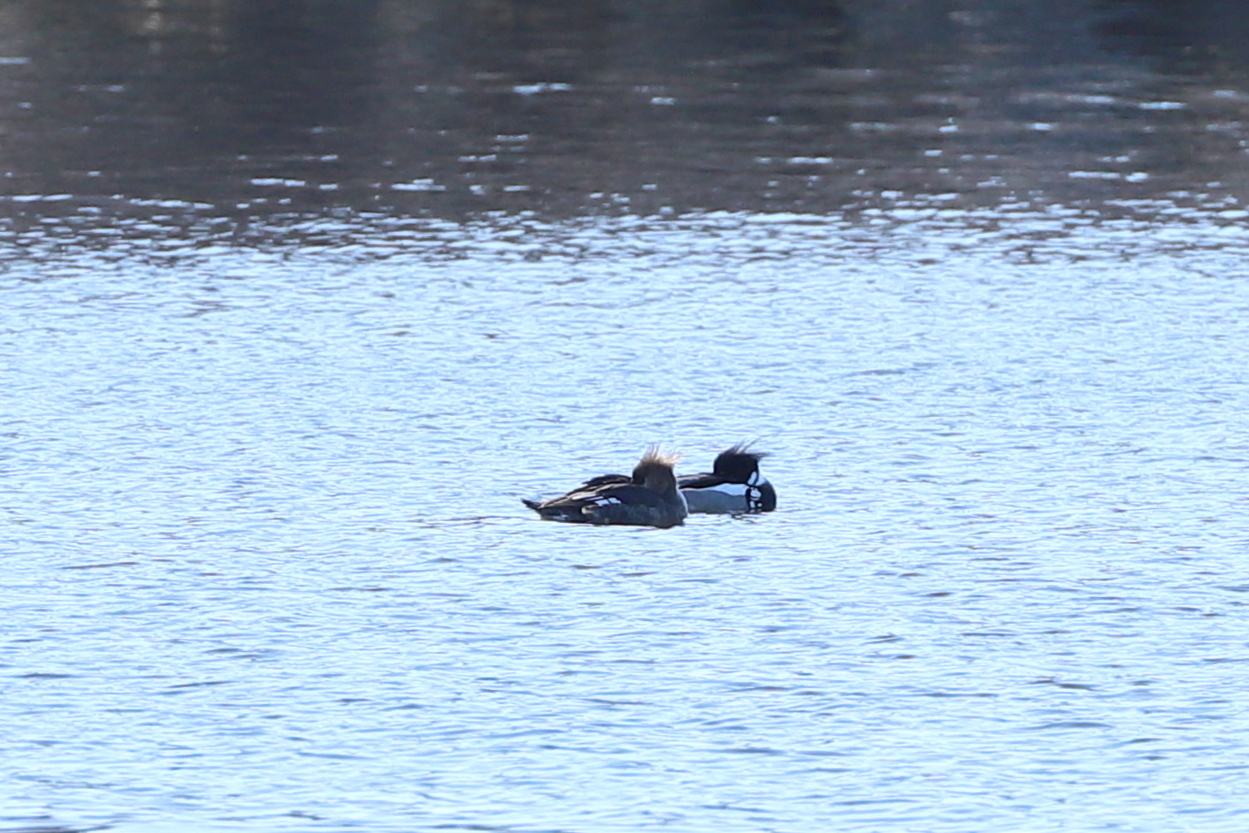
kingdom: Animalia
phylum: Chordata
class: Aves
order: Anseriformes
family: Anatidae
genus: Mergus
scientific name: Mergus serrator
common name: Red-breasted merganser
